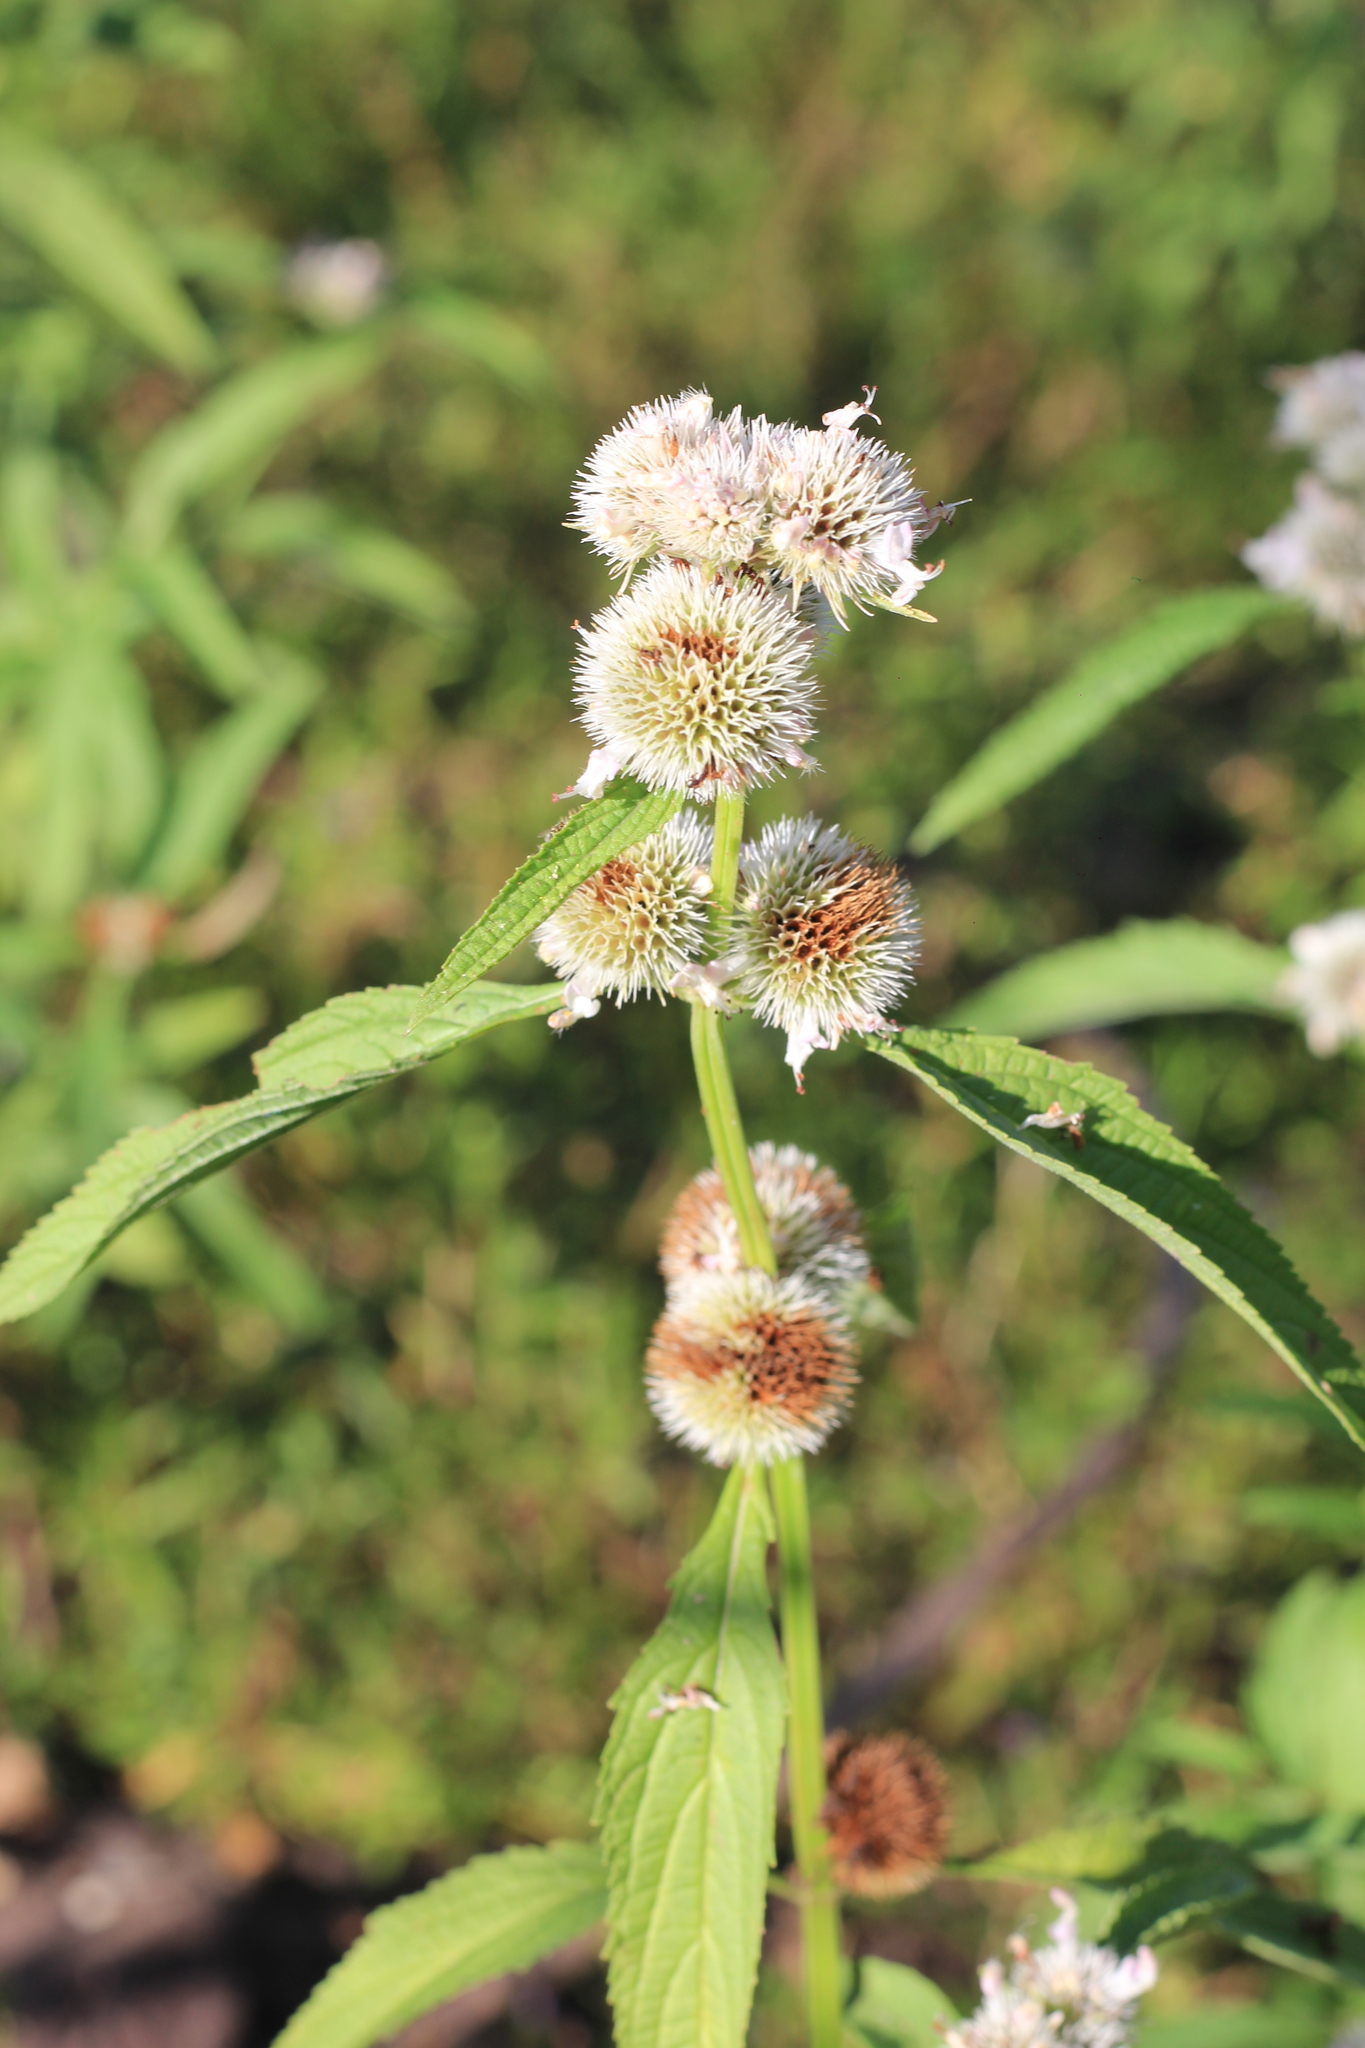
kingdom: Plantae
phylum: Tracheophyta
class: Magnoliopsida
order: Lamiales
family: Lamiaceae
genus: Hyptis
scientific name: Hyptis lappacea
